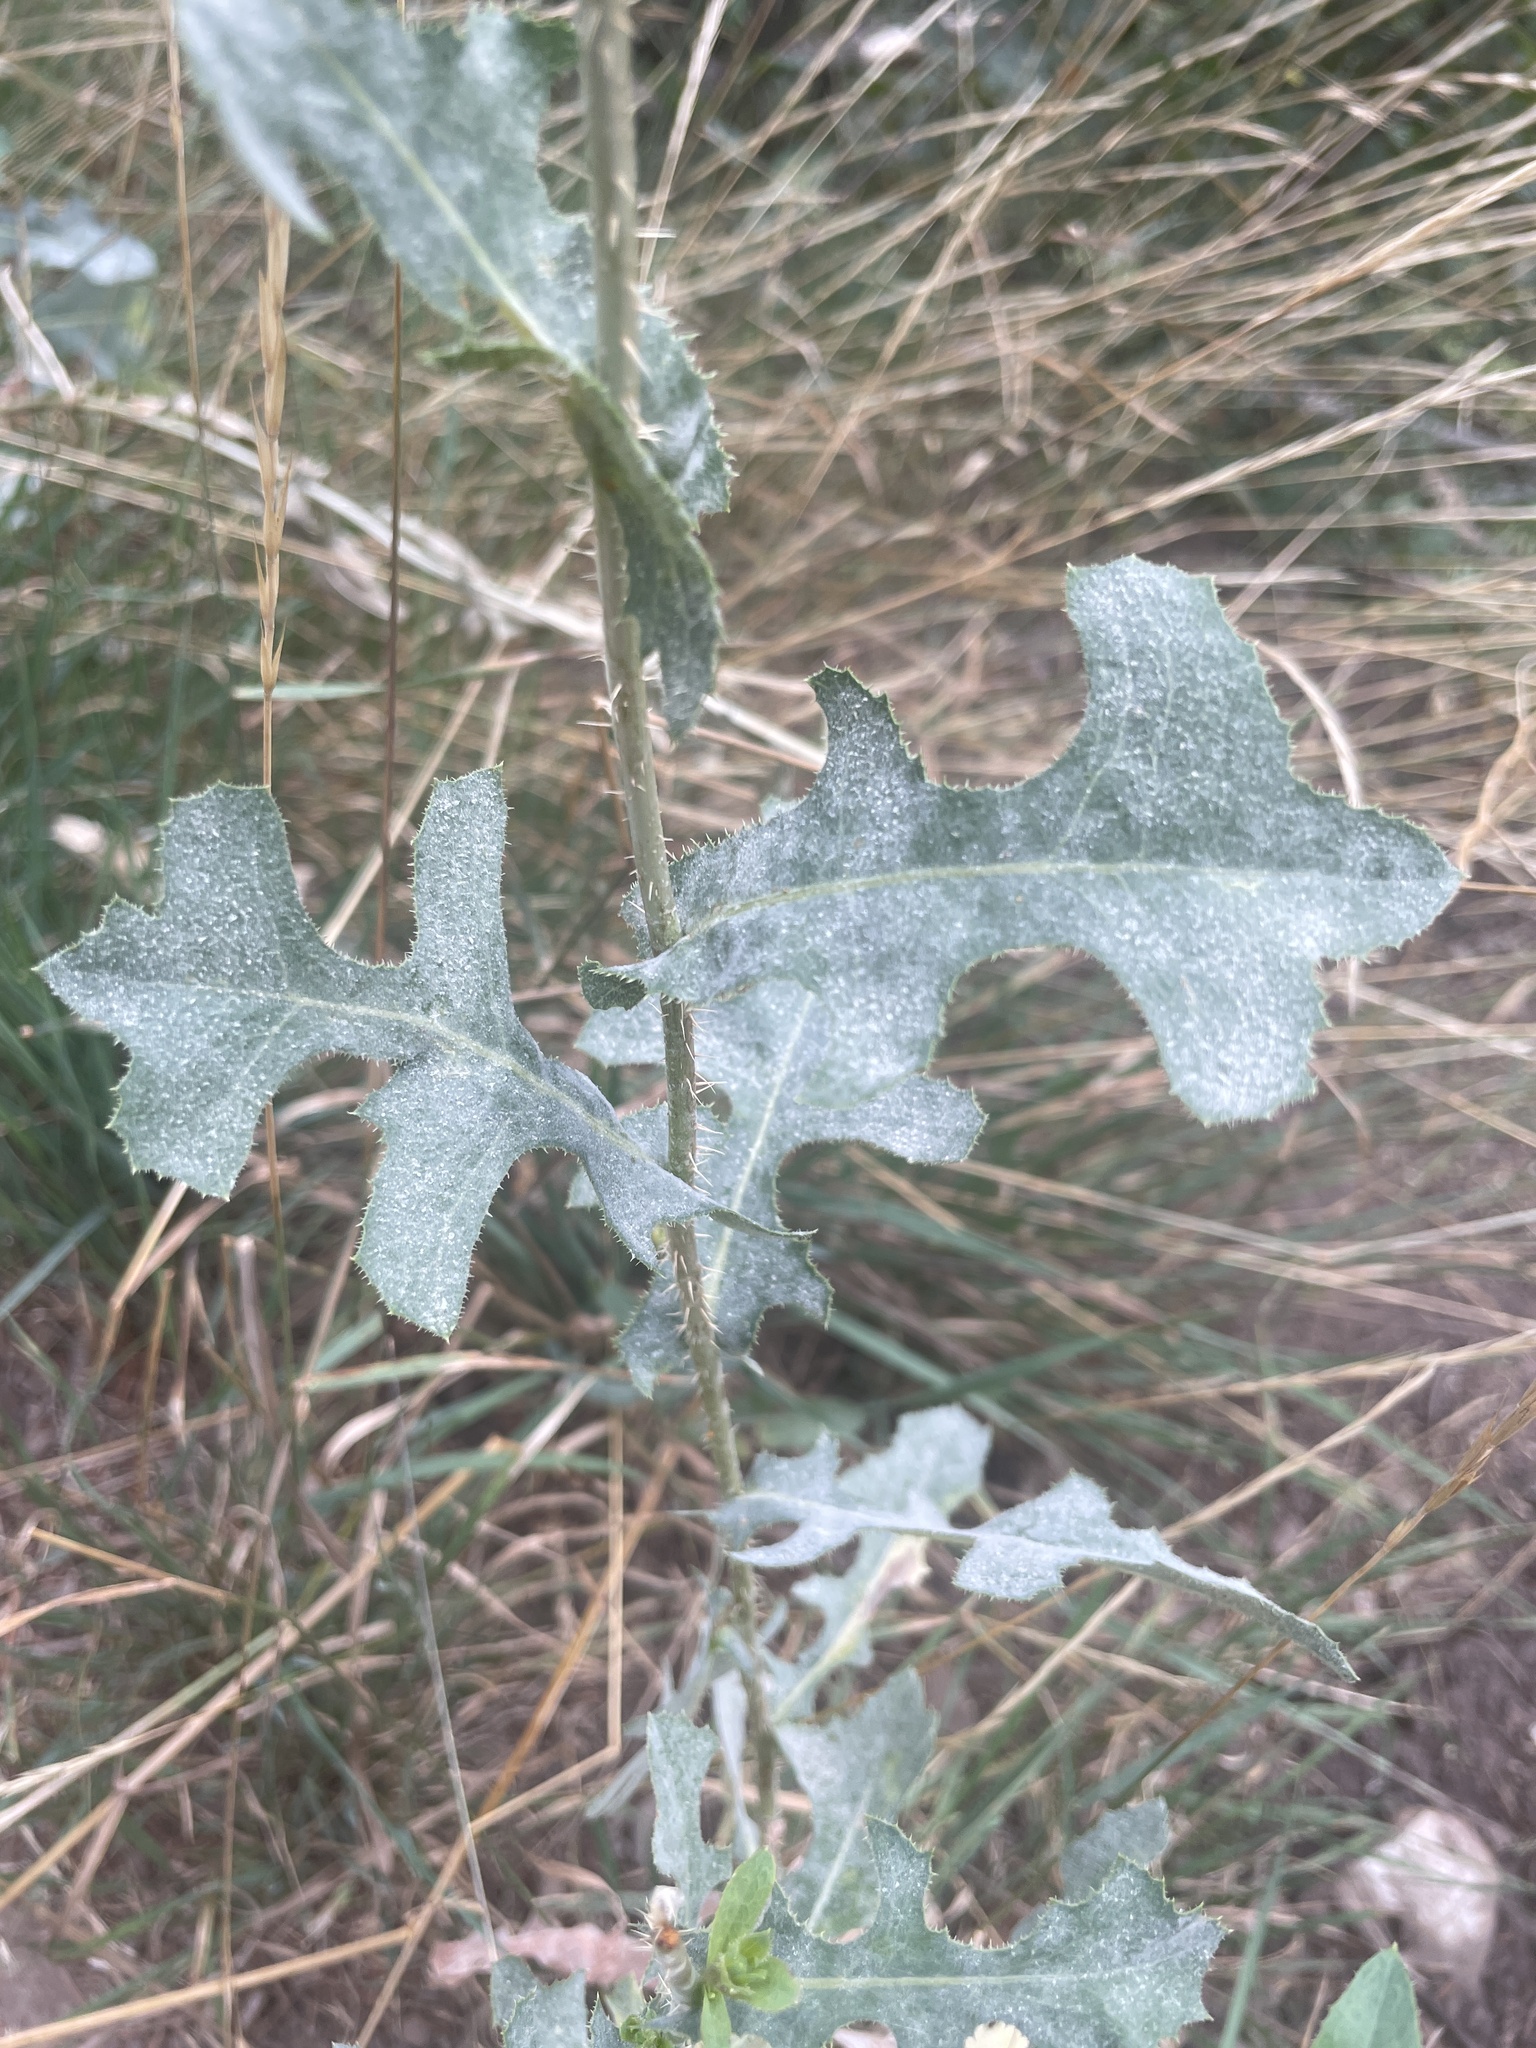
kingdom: Fungi
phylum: Ascomycota
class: Leotiomycetes
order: Helotiales
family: Erysiphaceae
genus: Golovinomyces
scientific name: Golovinomyces bolayi
